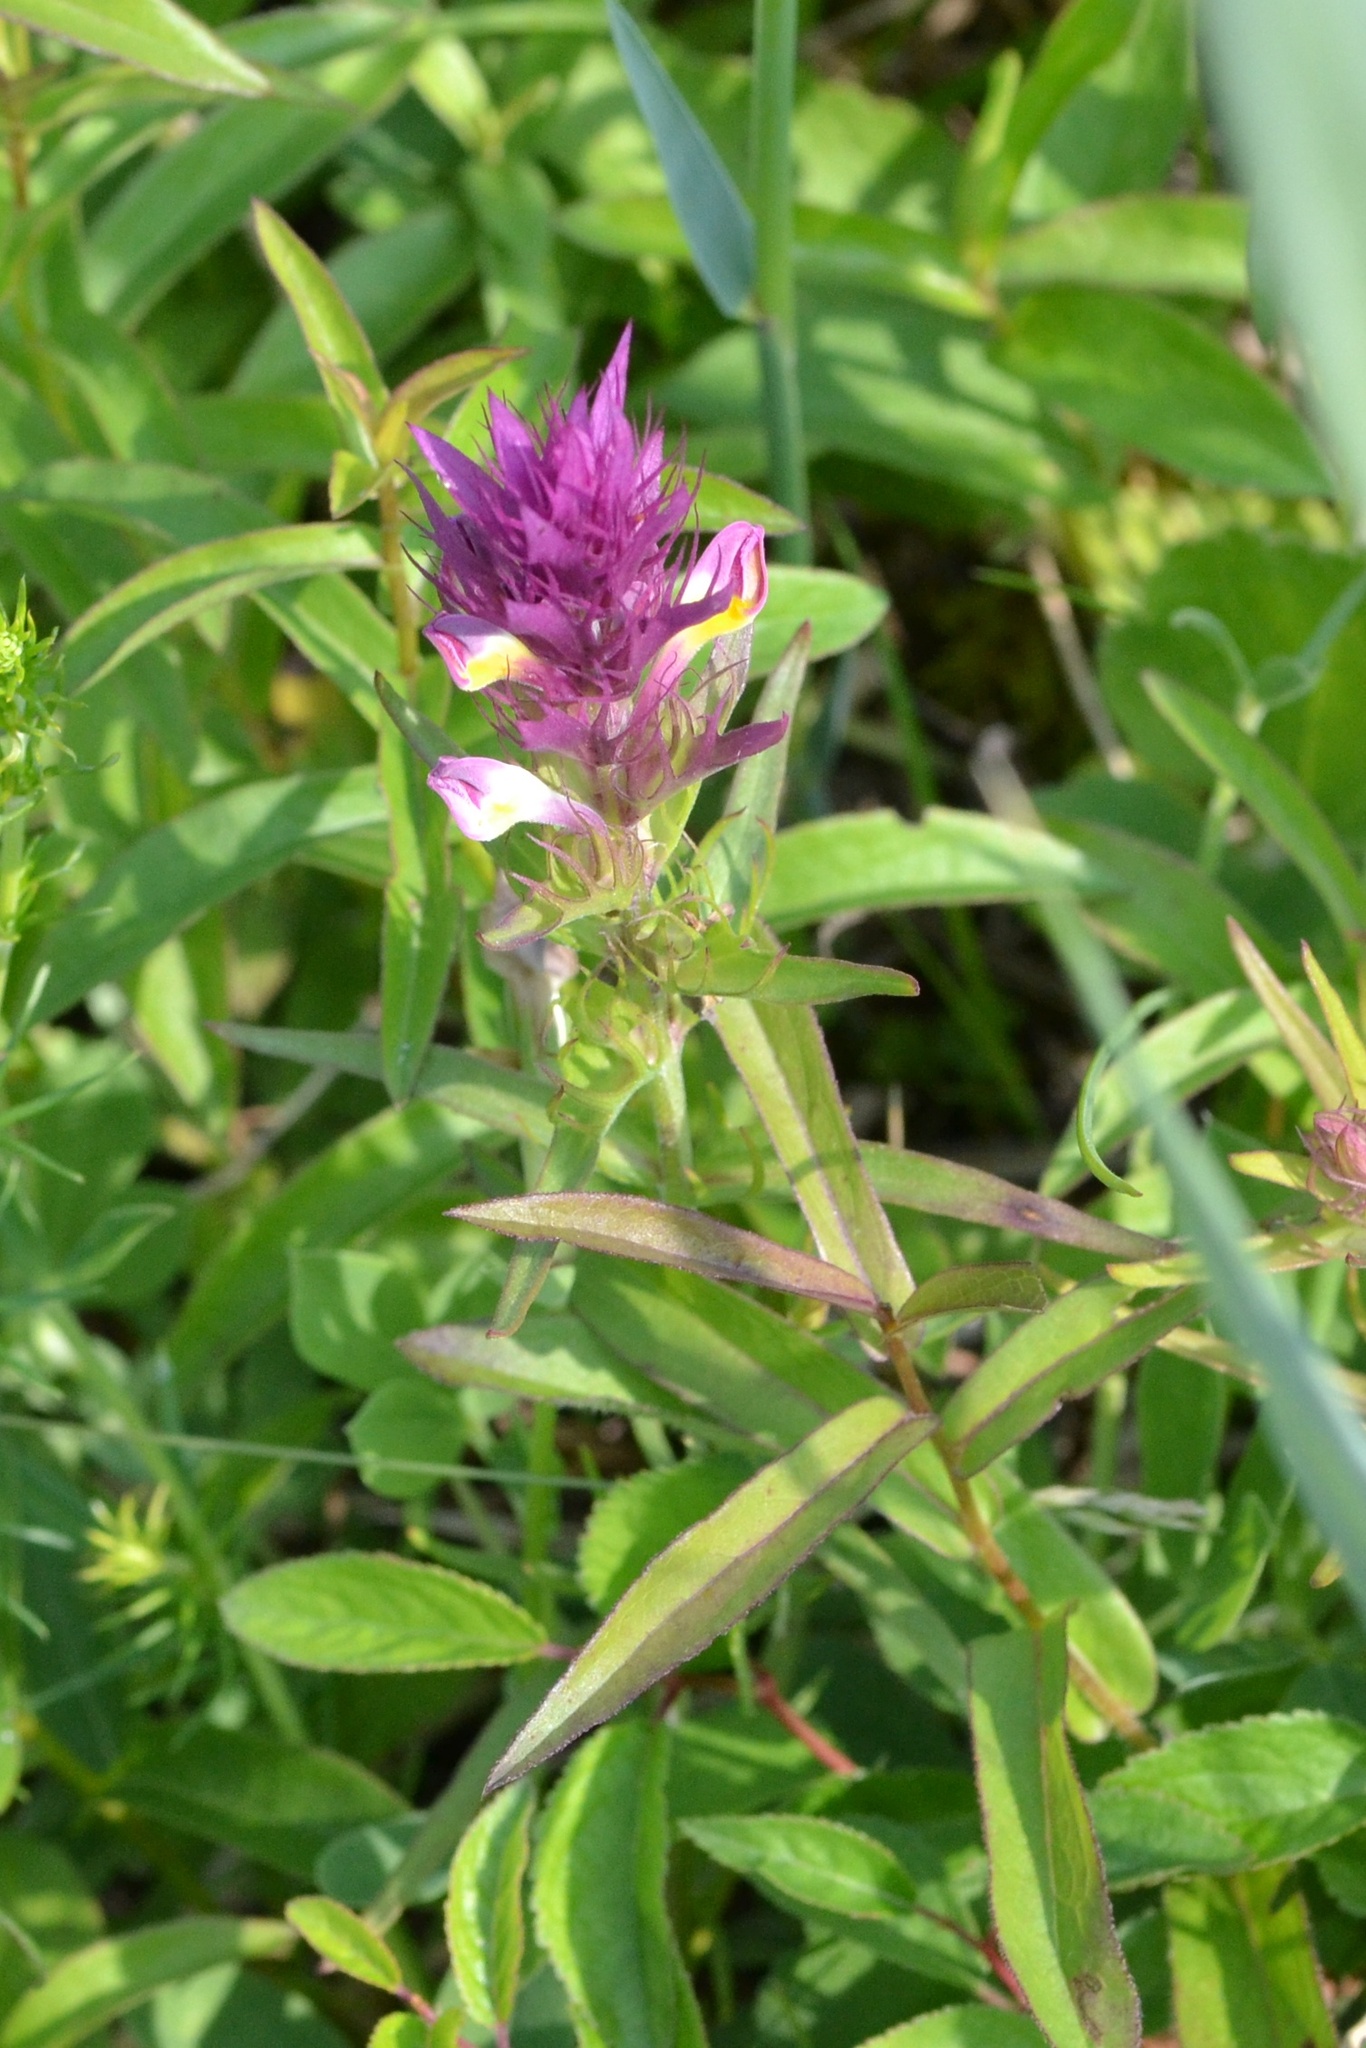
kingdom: Plantae
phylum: Tracheophyta
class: Magnoliopsida
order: Lamiales
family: Orobanchaceae
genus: Melampyrum
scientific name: Melampyrum arvense
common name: Field cow-wheat
